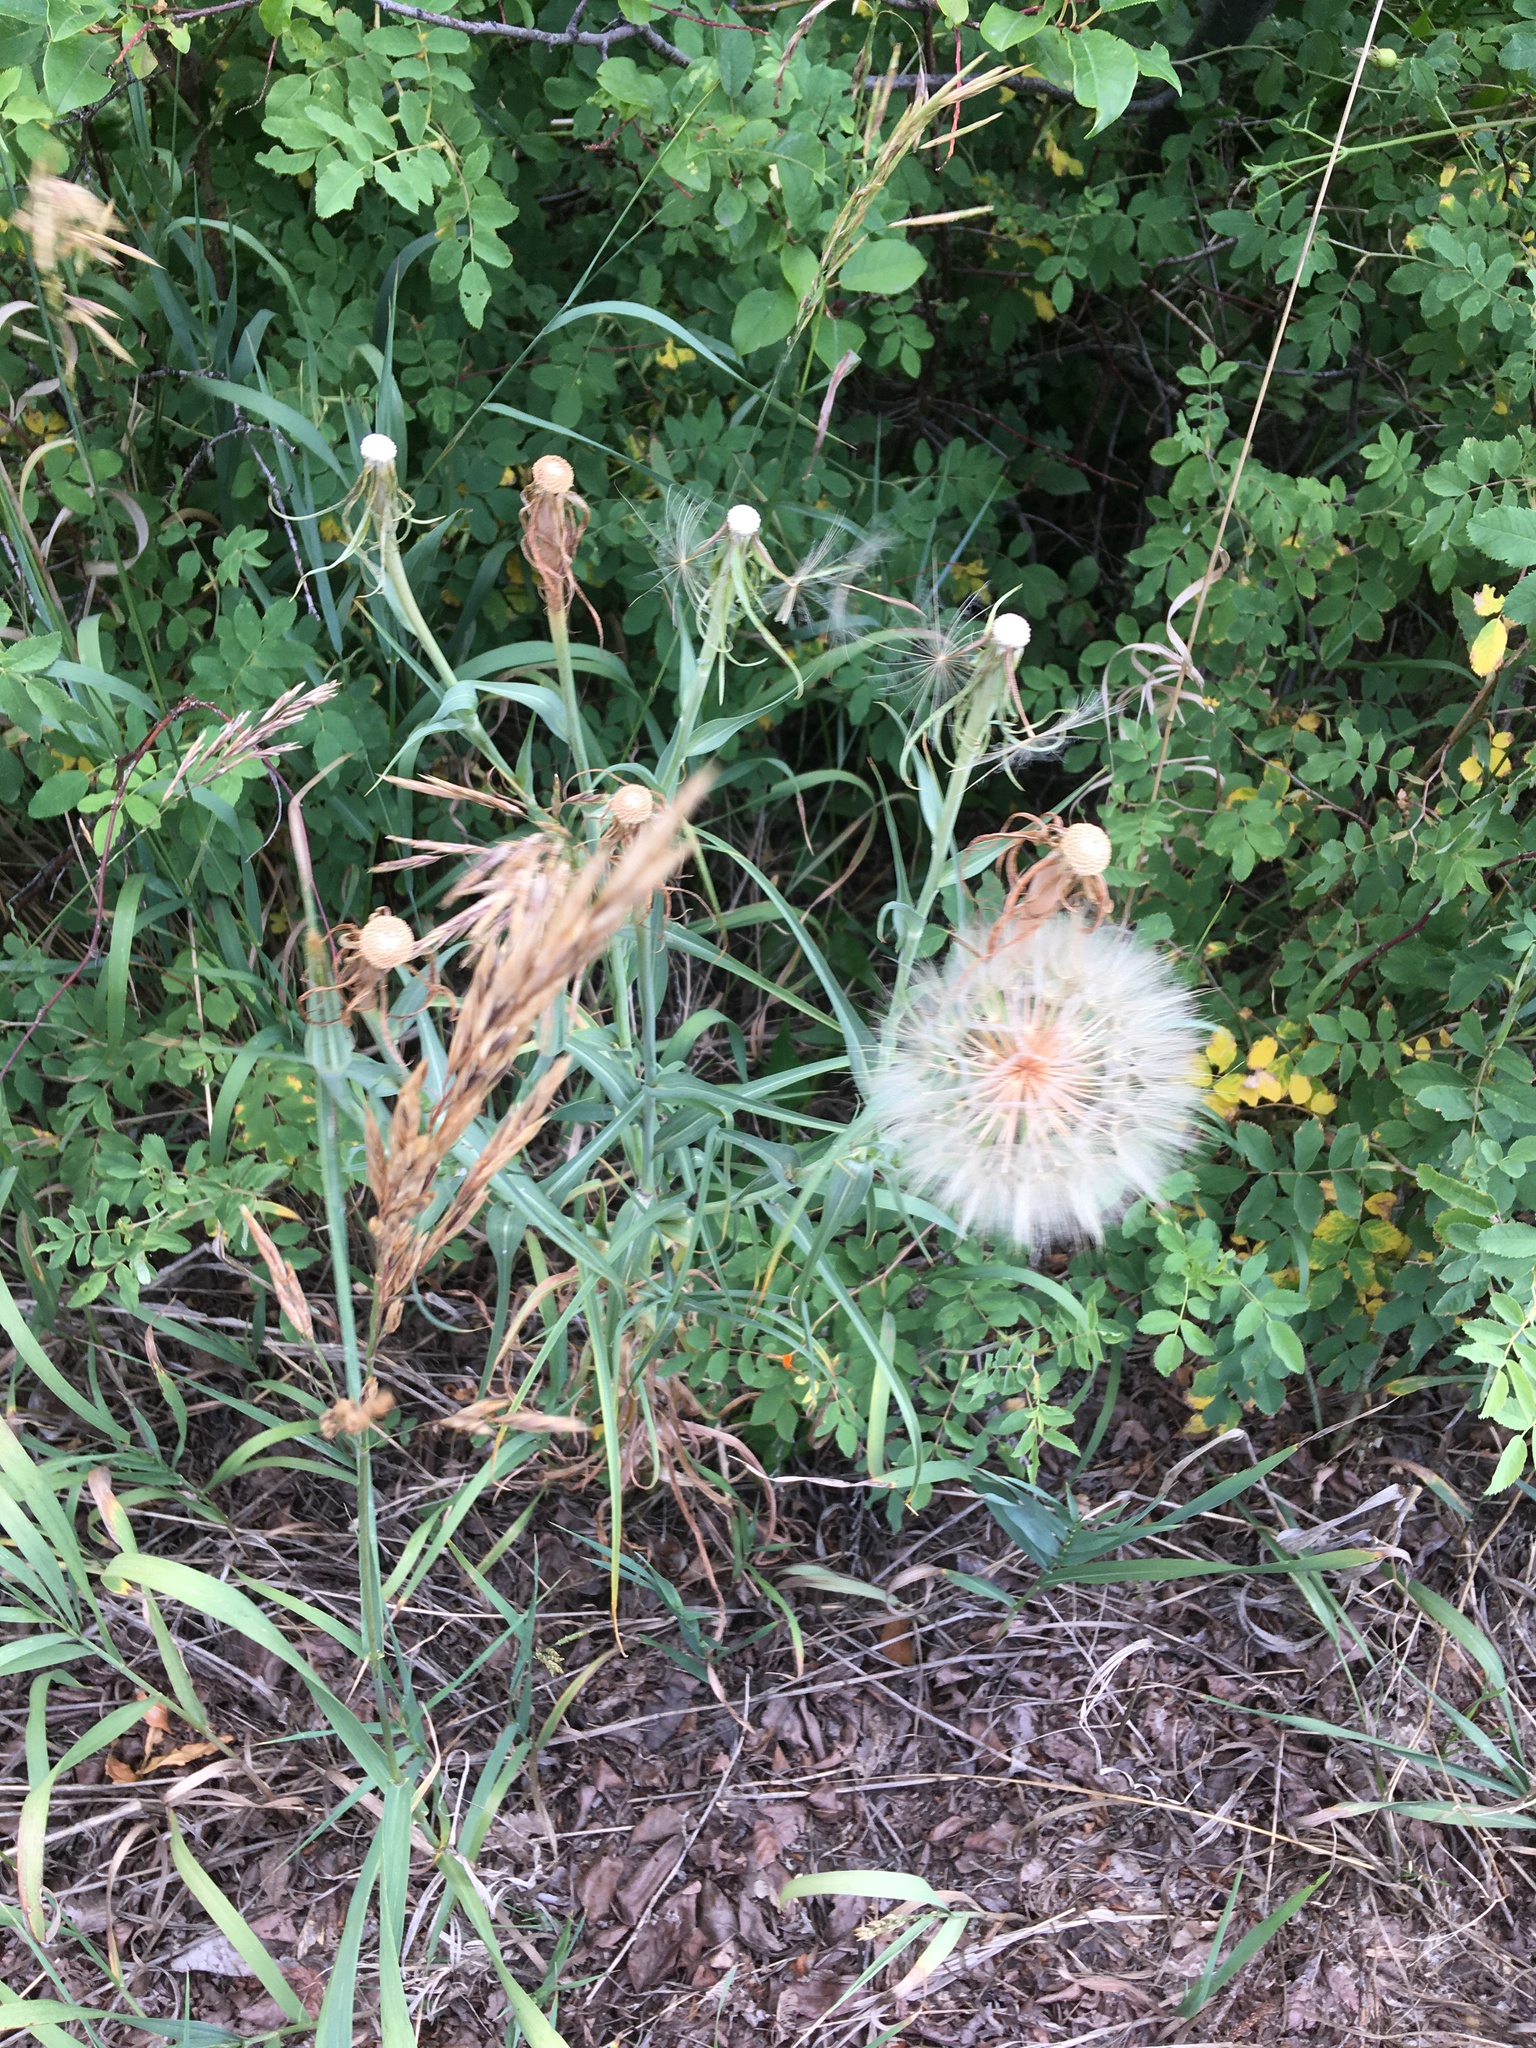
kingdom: Plantae
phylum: Tracheophyta
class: Magnoliopsida
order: Asterales
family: Asteraceae
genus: Tragopogon
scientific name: Tragopogon dubius
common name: Yellow salsify
